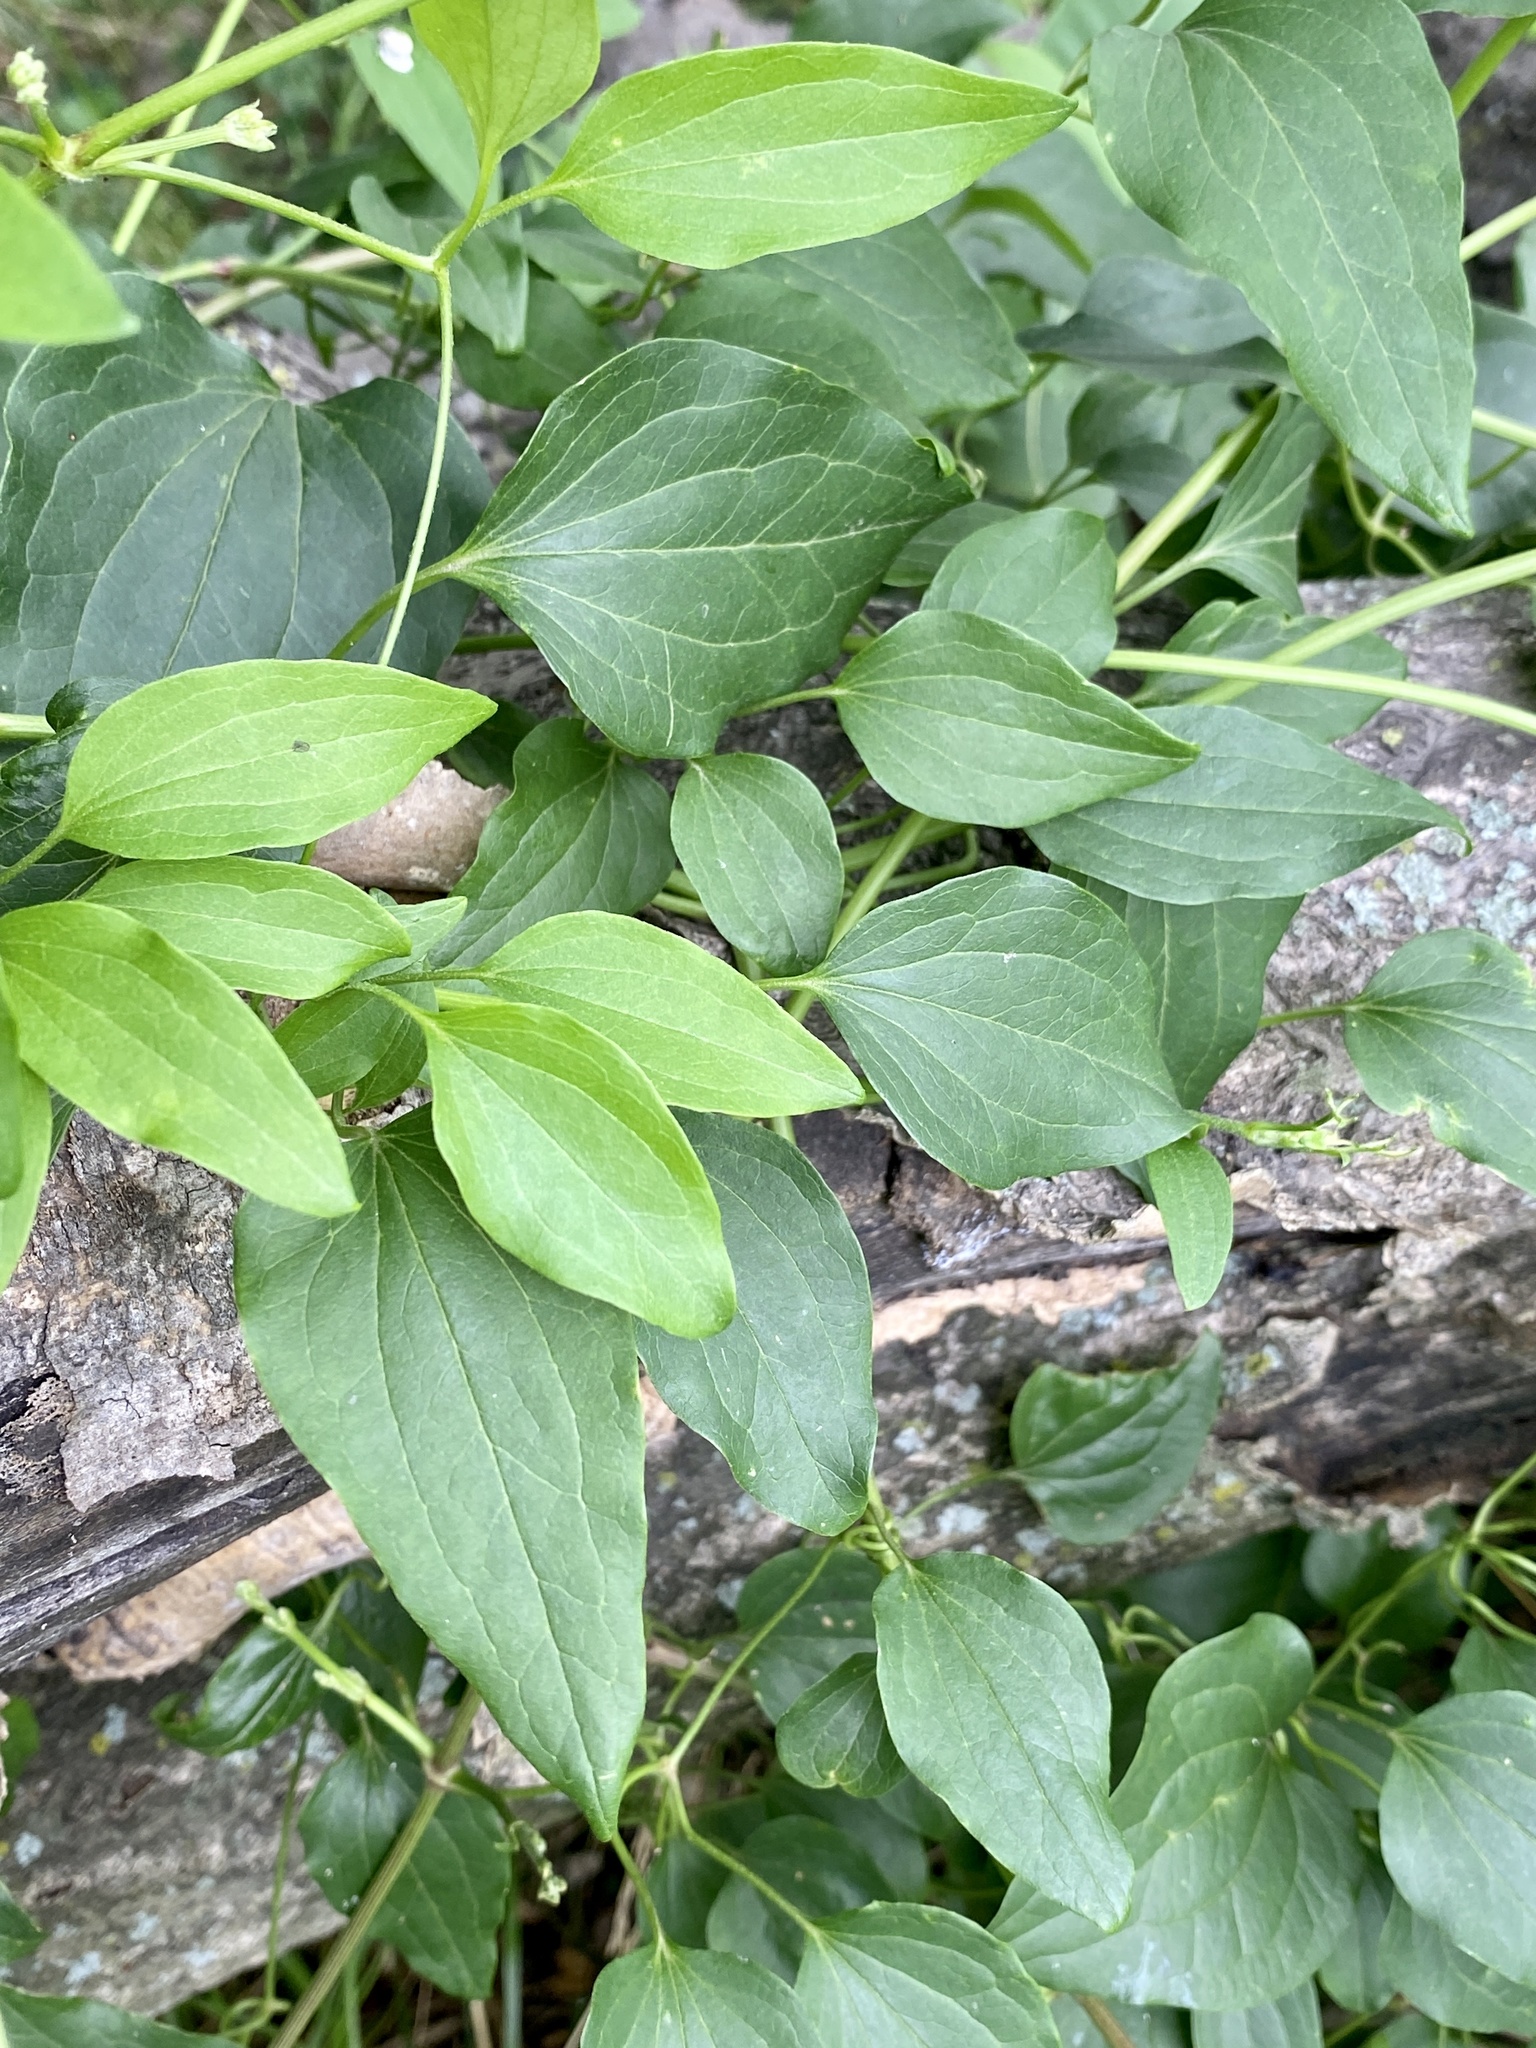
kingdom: Plantae
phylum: Tracheophyta
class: Magnoliopsida
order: Ranunculales
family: Ranunculaceae
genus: Clematis
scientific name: Clematis terniflora
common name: Sweet autumn clematis
